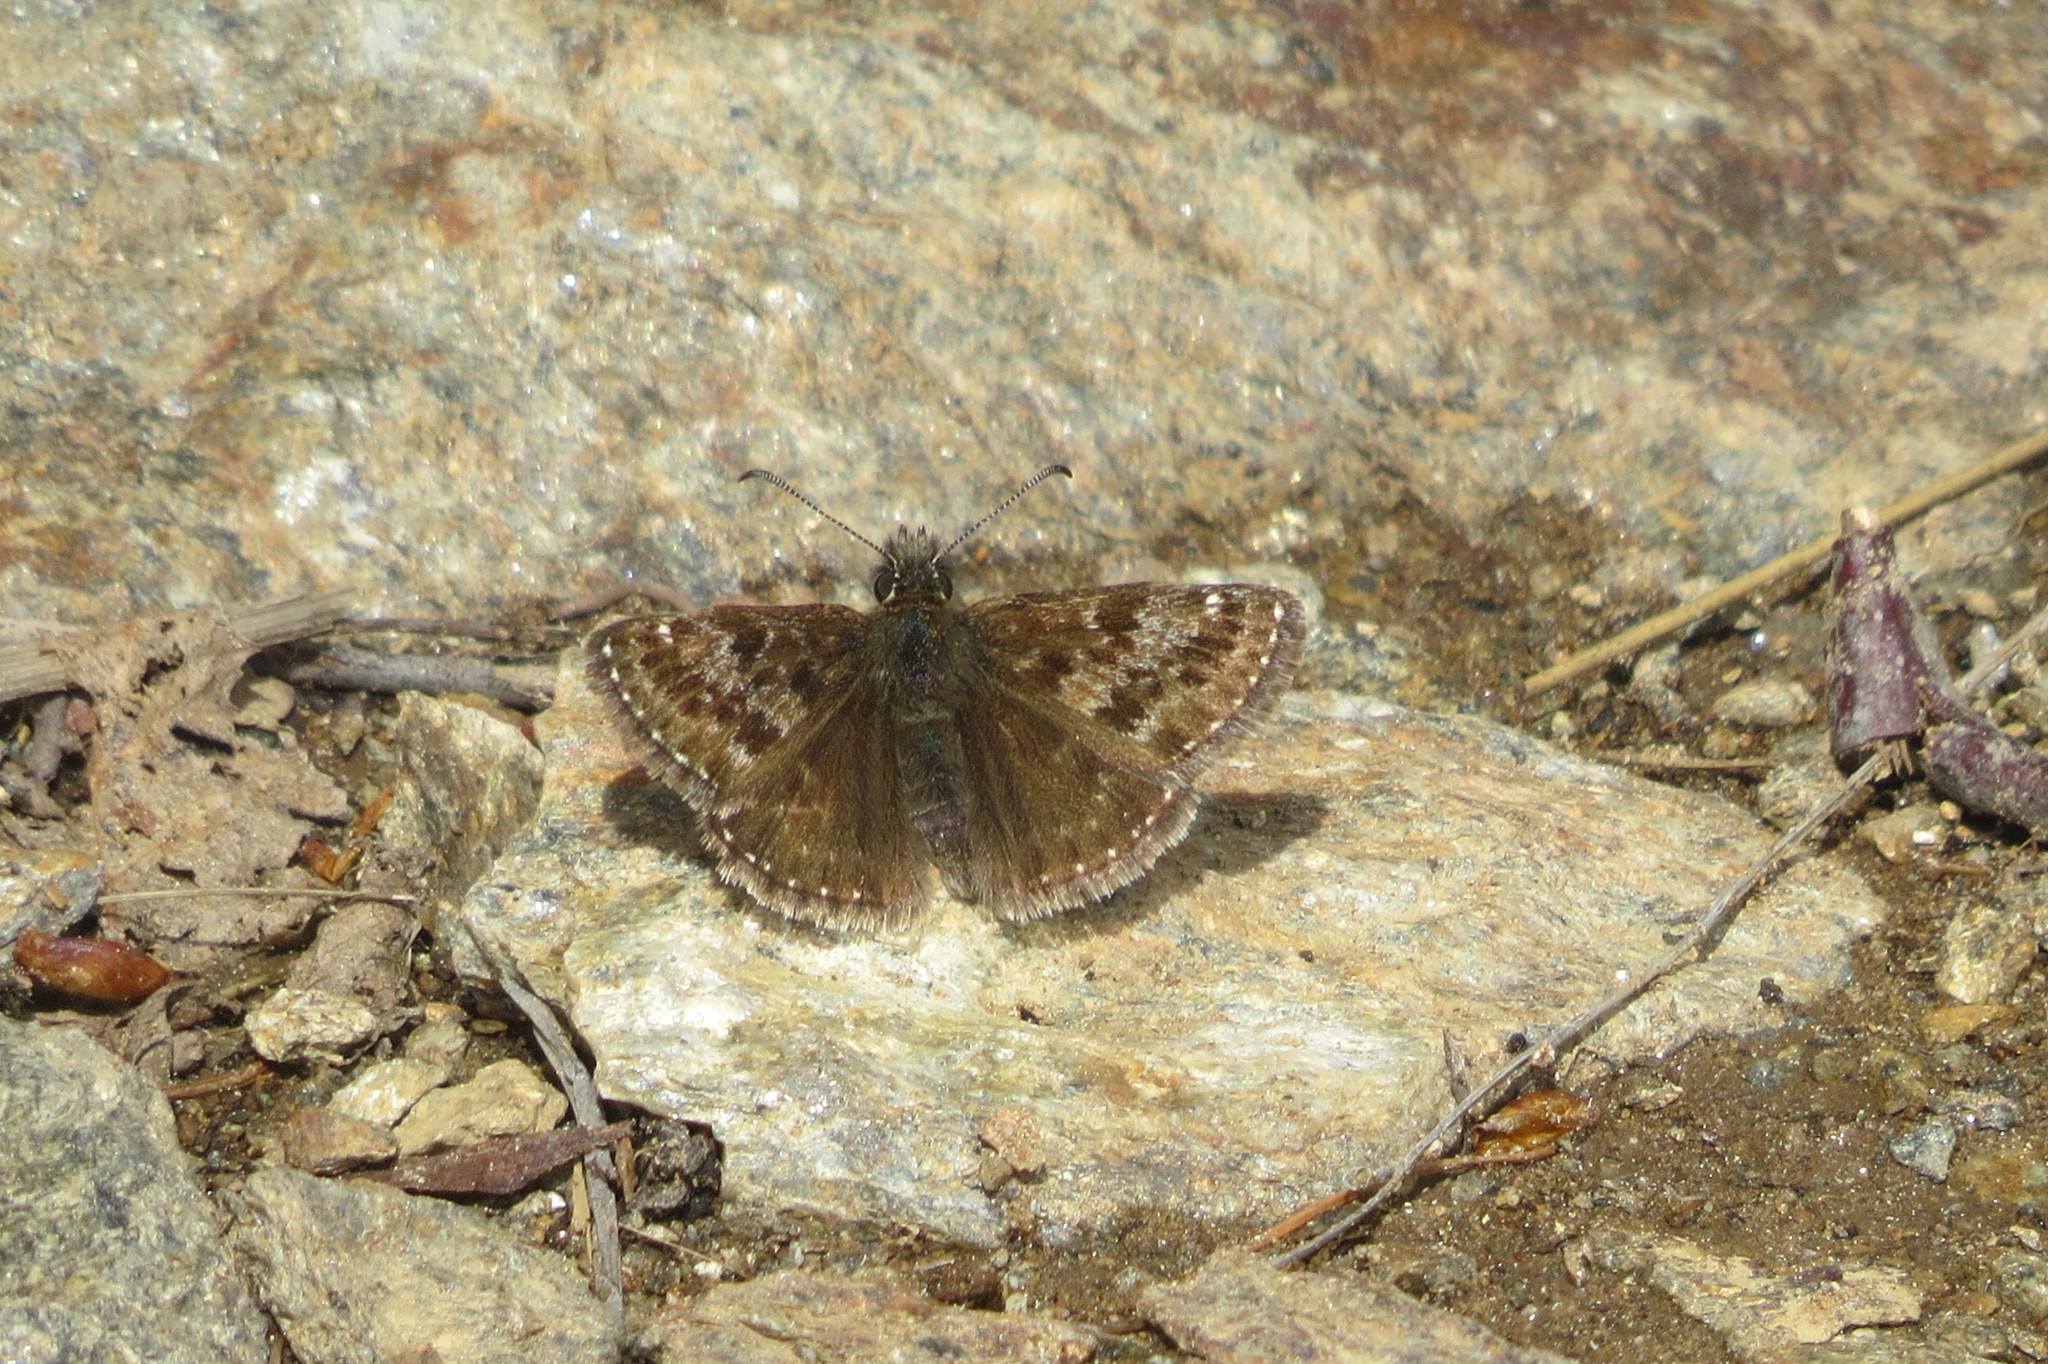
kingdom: Animalia
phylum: Arthropoda
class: Insecta
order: Lepidoptera
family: Hesperiidae
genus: Erynnis
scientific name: Erynnis tages
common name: Dingy skipper
